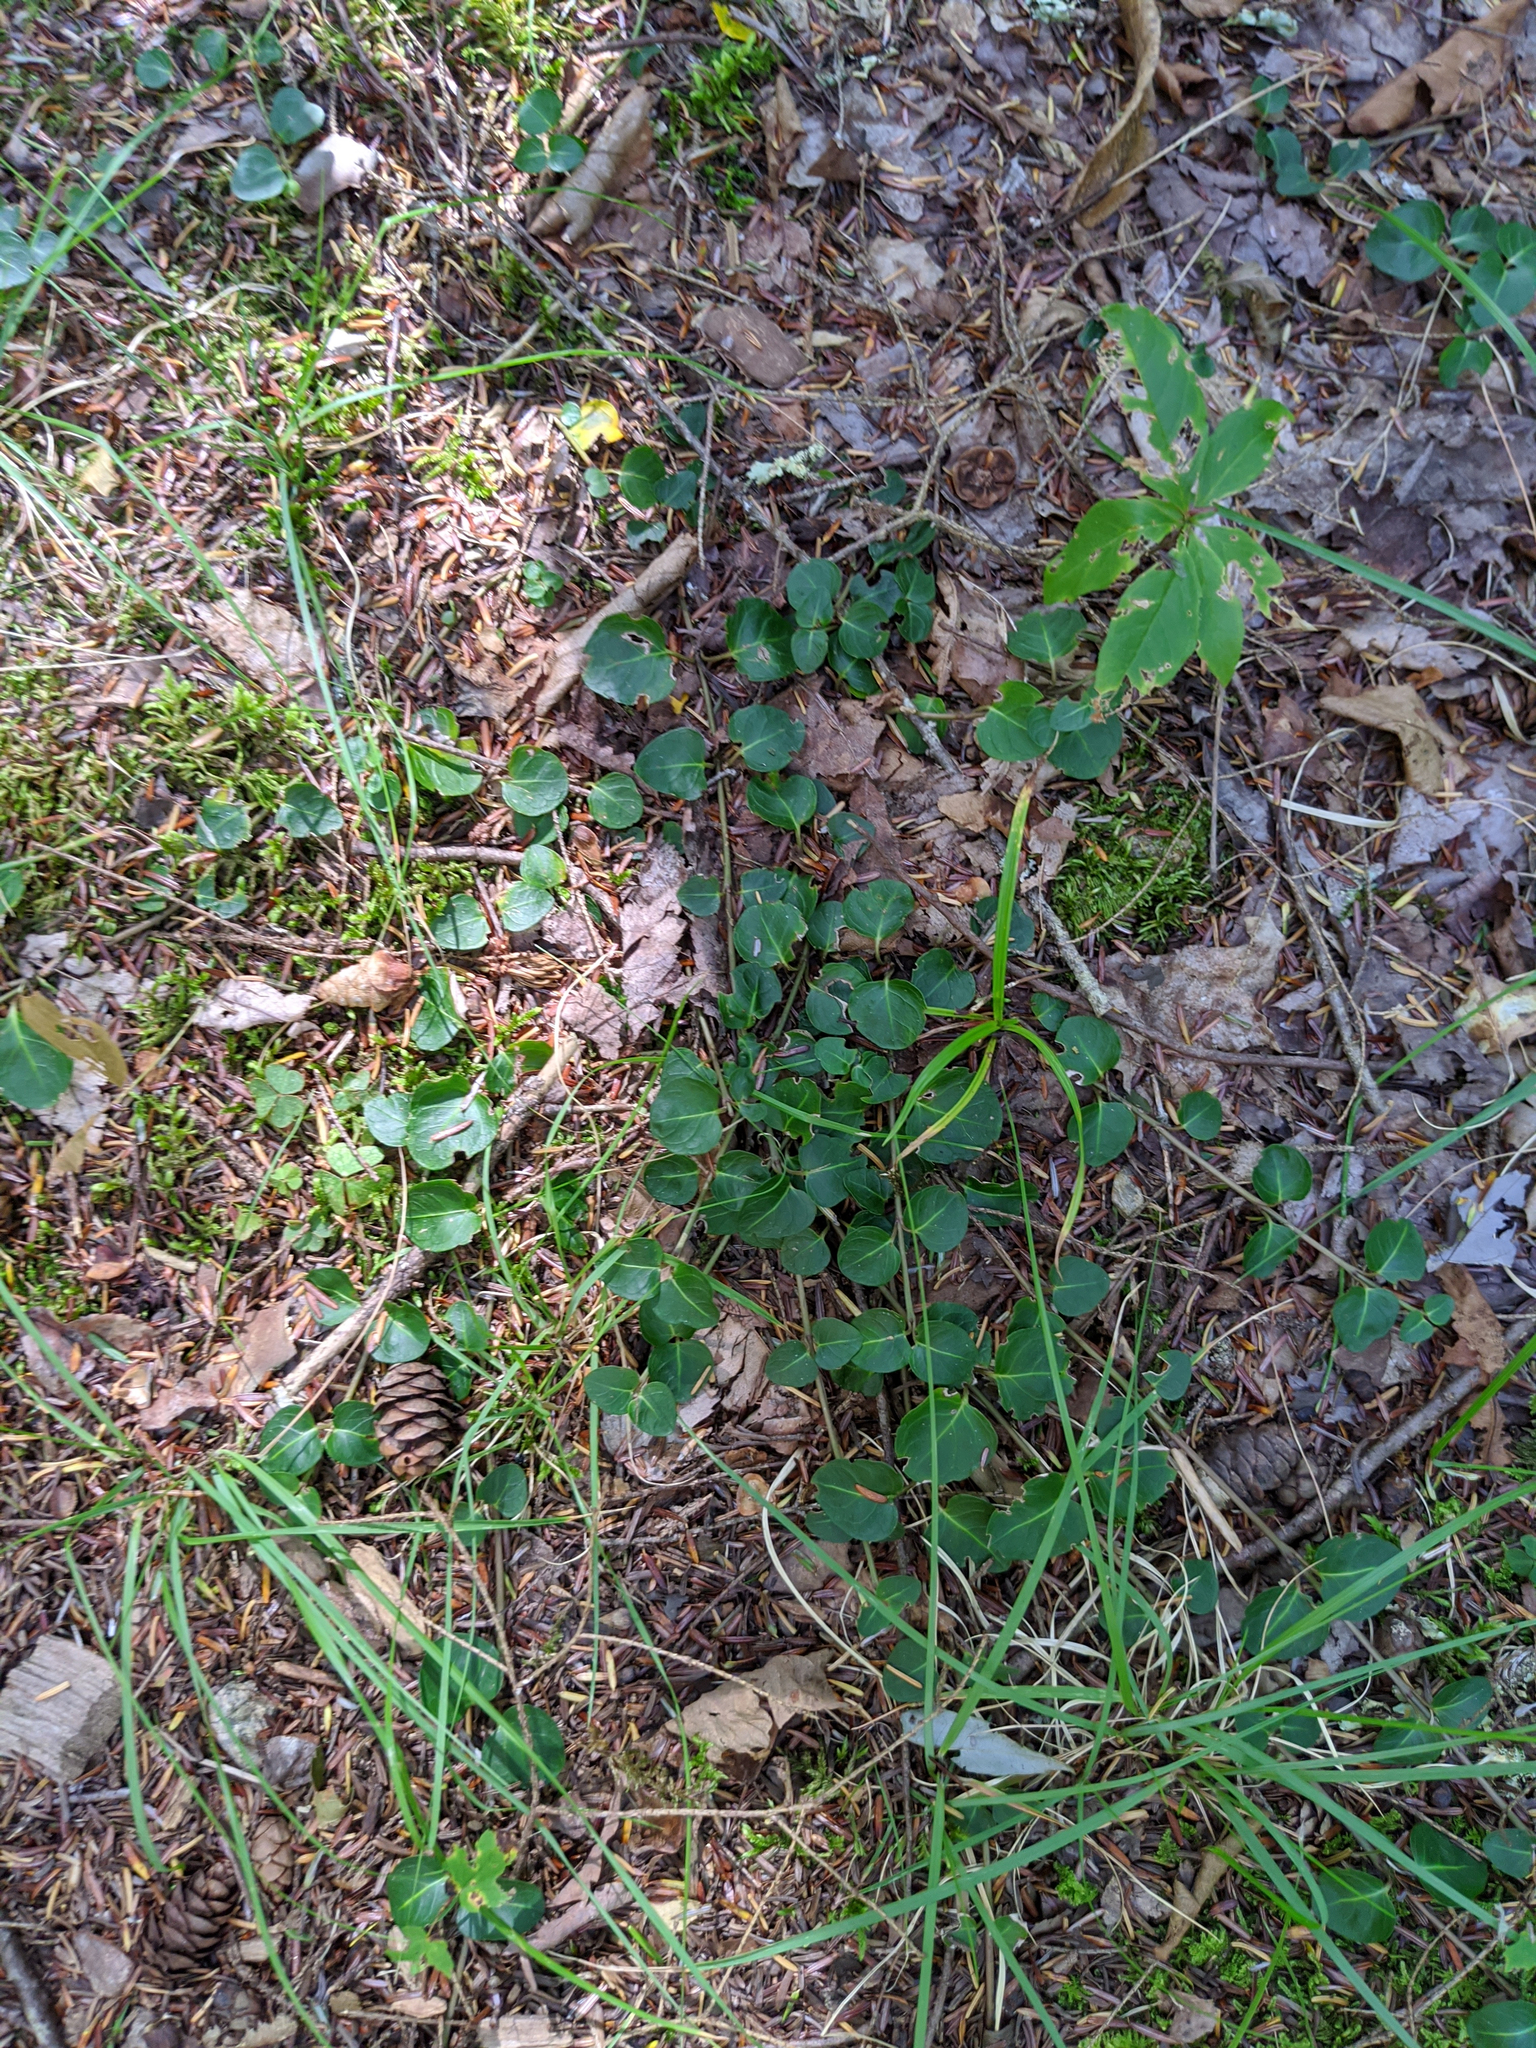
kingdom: Plantae
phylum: Tracheophyta
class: Magnoliopsida
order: Gentianales
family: Rubiaceae
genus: Mitchella
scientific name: Mitchella repens
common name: Partridge-berry
